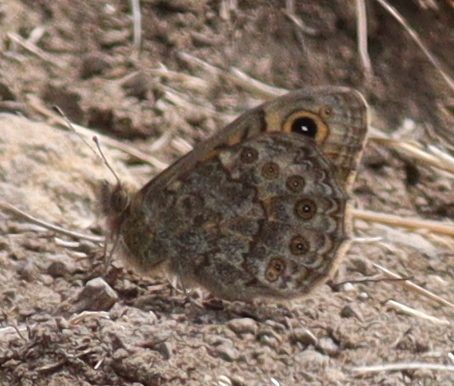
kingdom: Animalia
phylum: Arthropoda
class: Insecta
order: Lepidoptera
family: Nymphalidae
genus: Pararge
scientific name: Pararge Lasiommata megera
